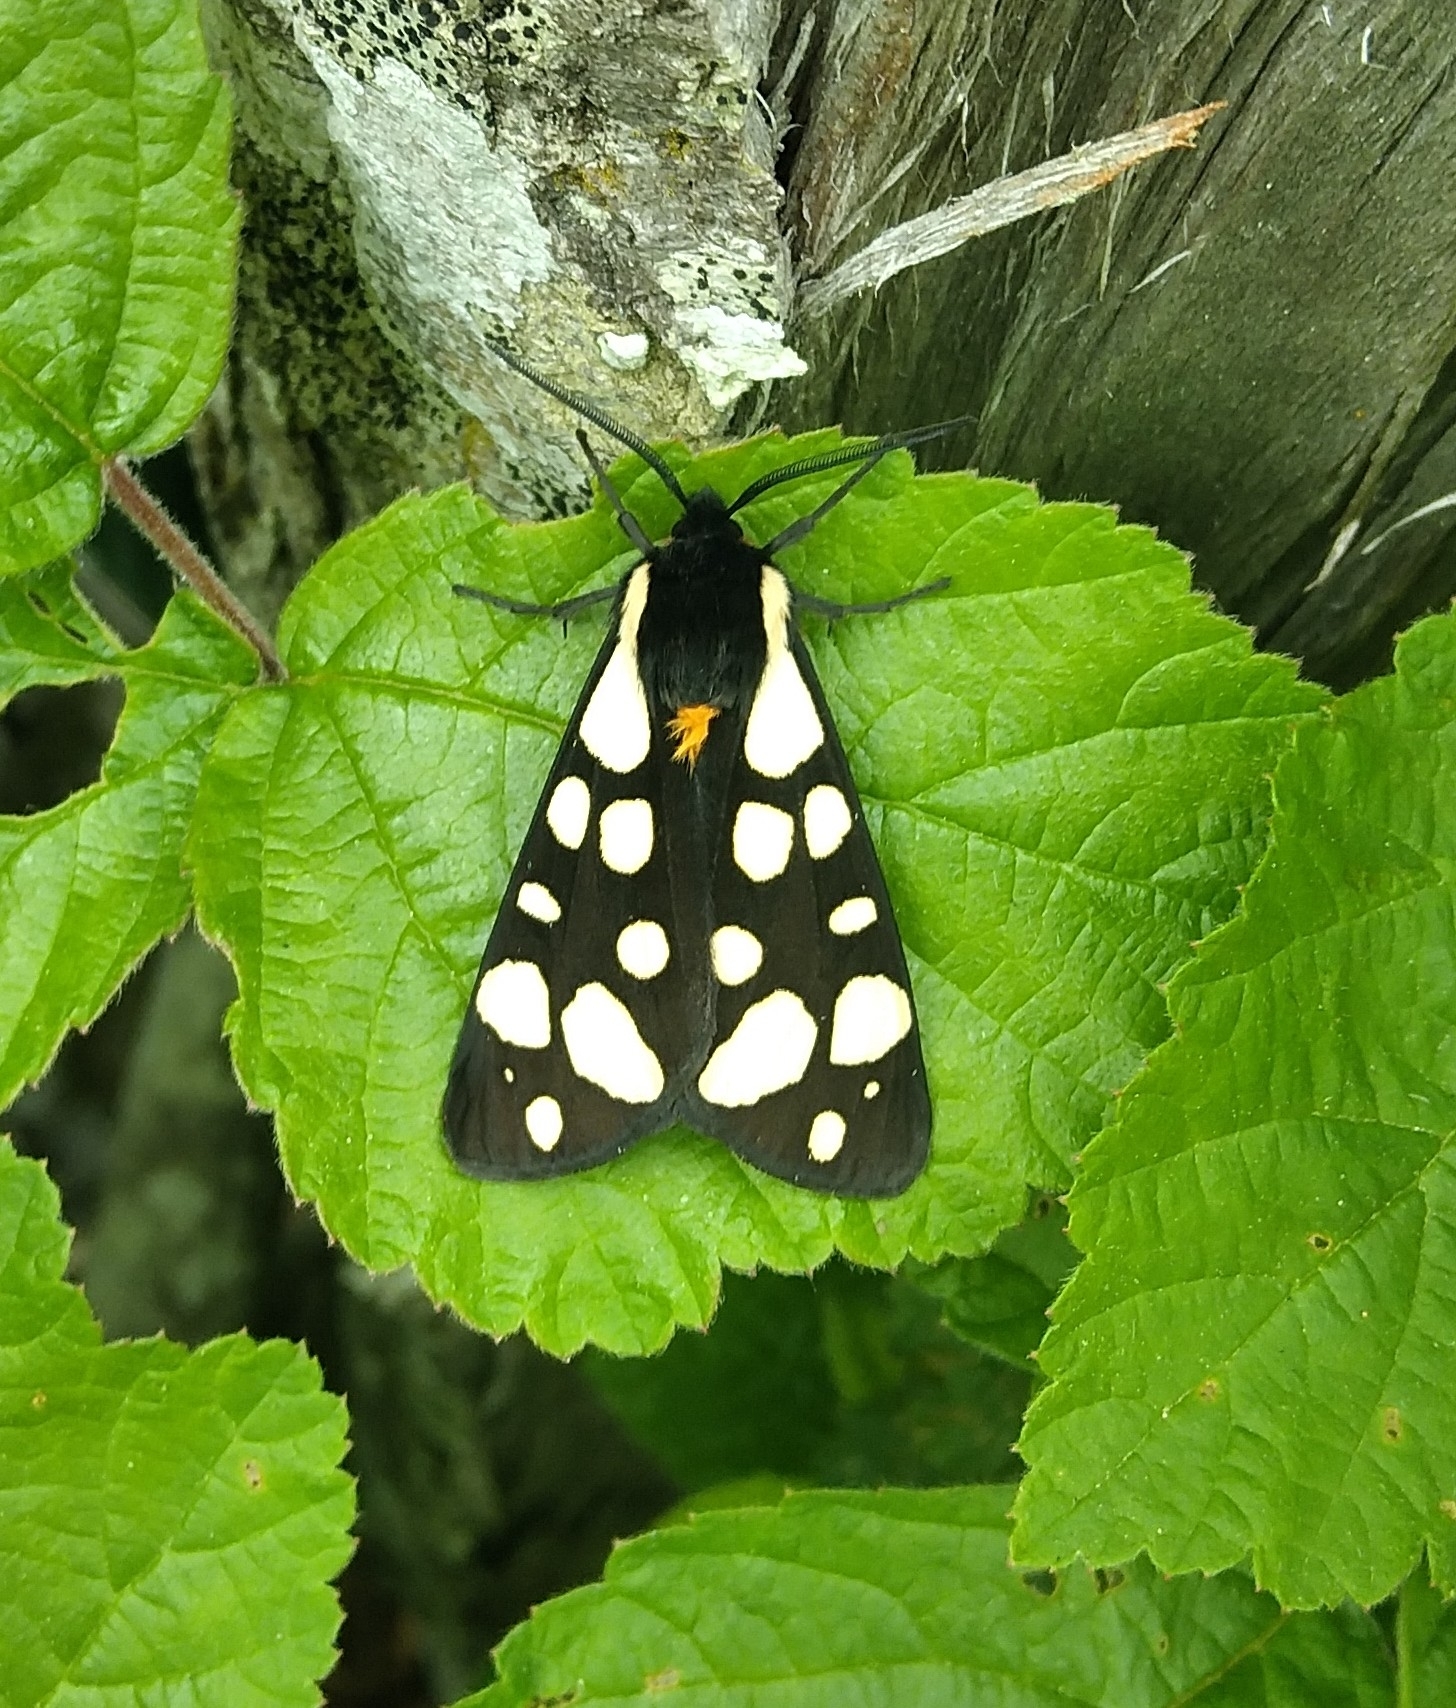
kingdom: Animalia
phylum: Arthropoda
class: Insecta
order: Lepidoptera
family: Erebidae
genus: Epicallia
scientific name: Epicallia villica
